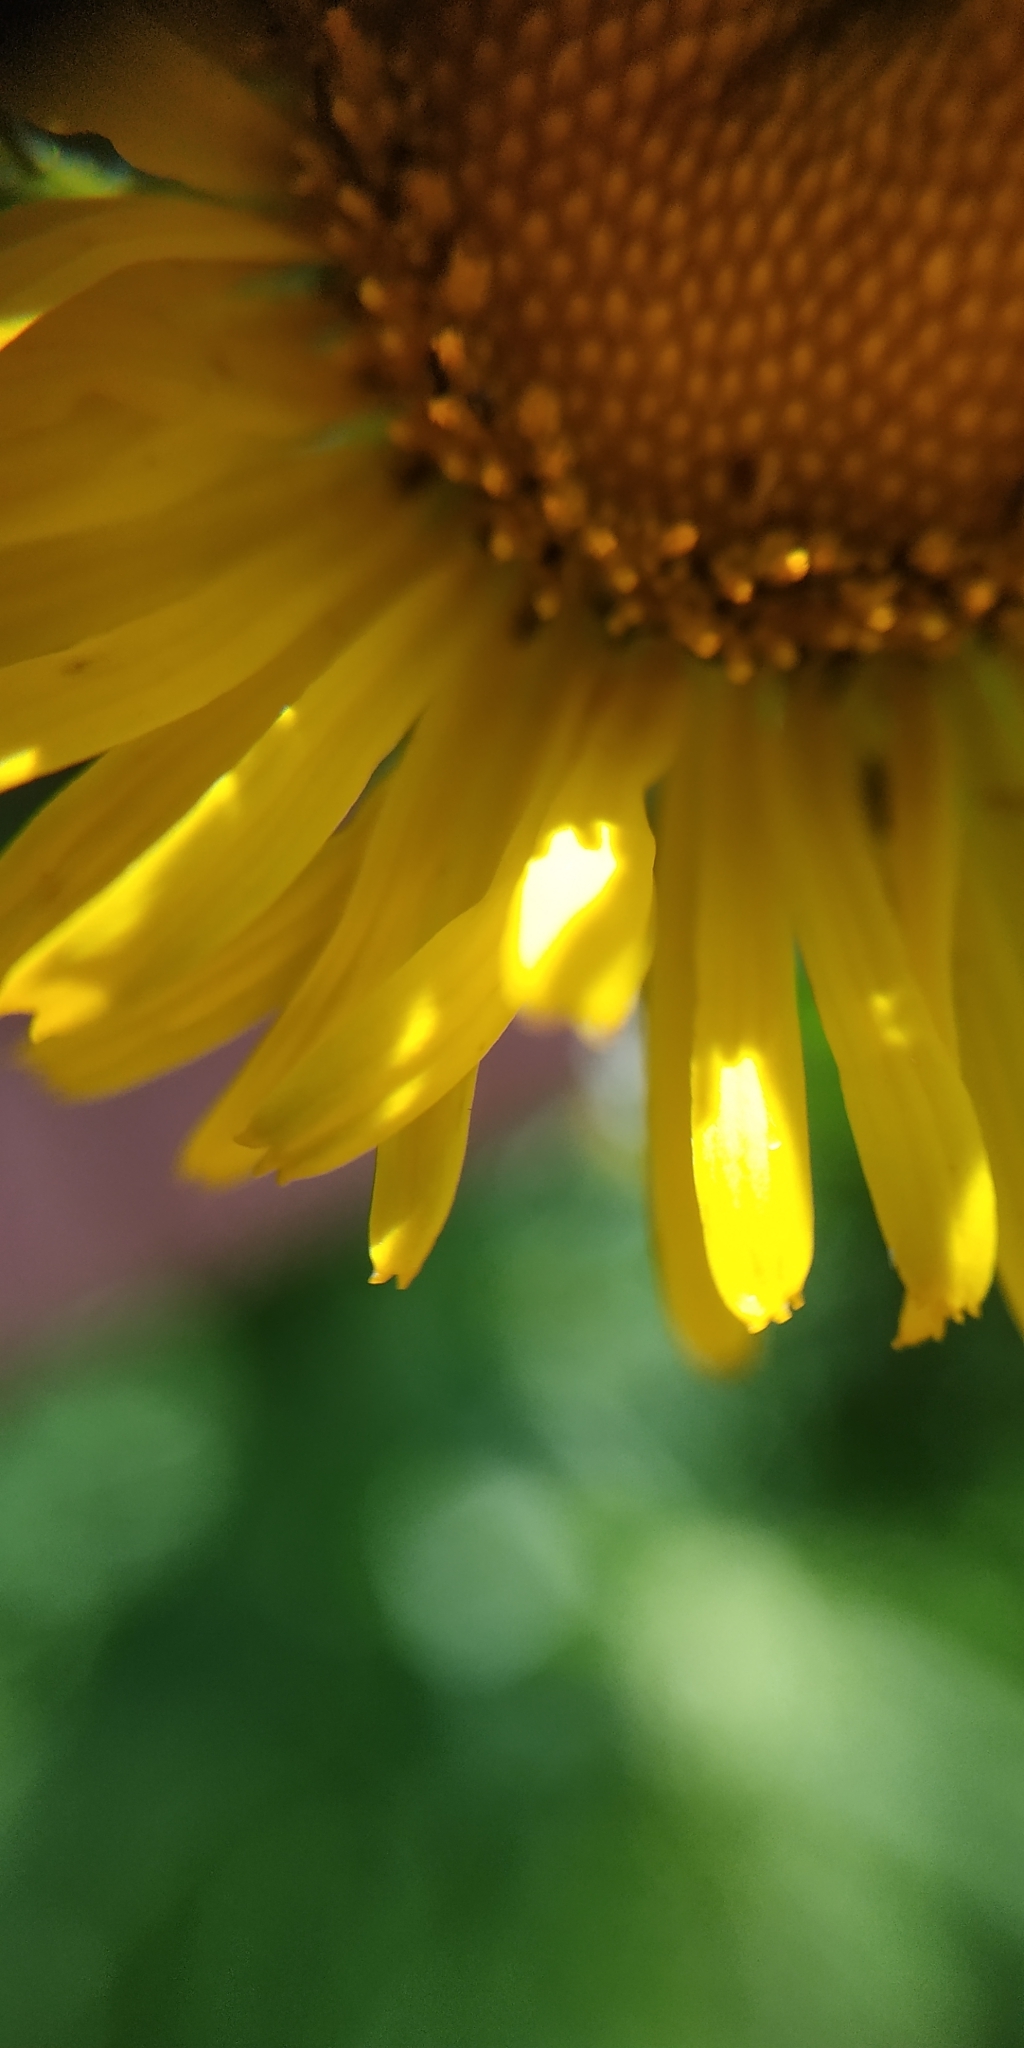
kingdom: Plantae
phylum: Tracheophyta
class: Magnoliopsida
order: Asterales
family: Asteraceae
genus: Pentanema
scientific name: Pentanema britannicum
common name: British elecampane
